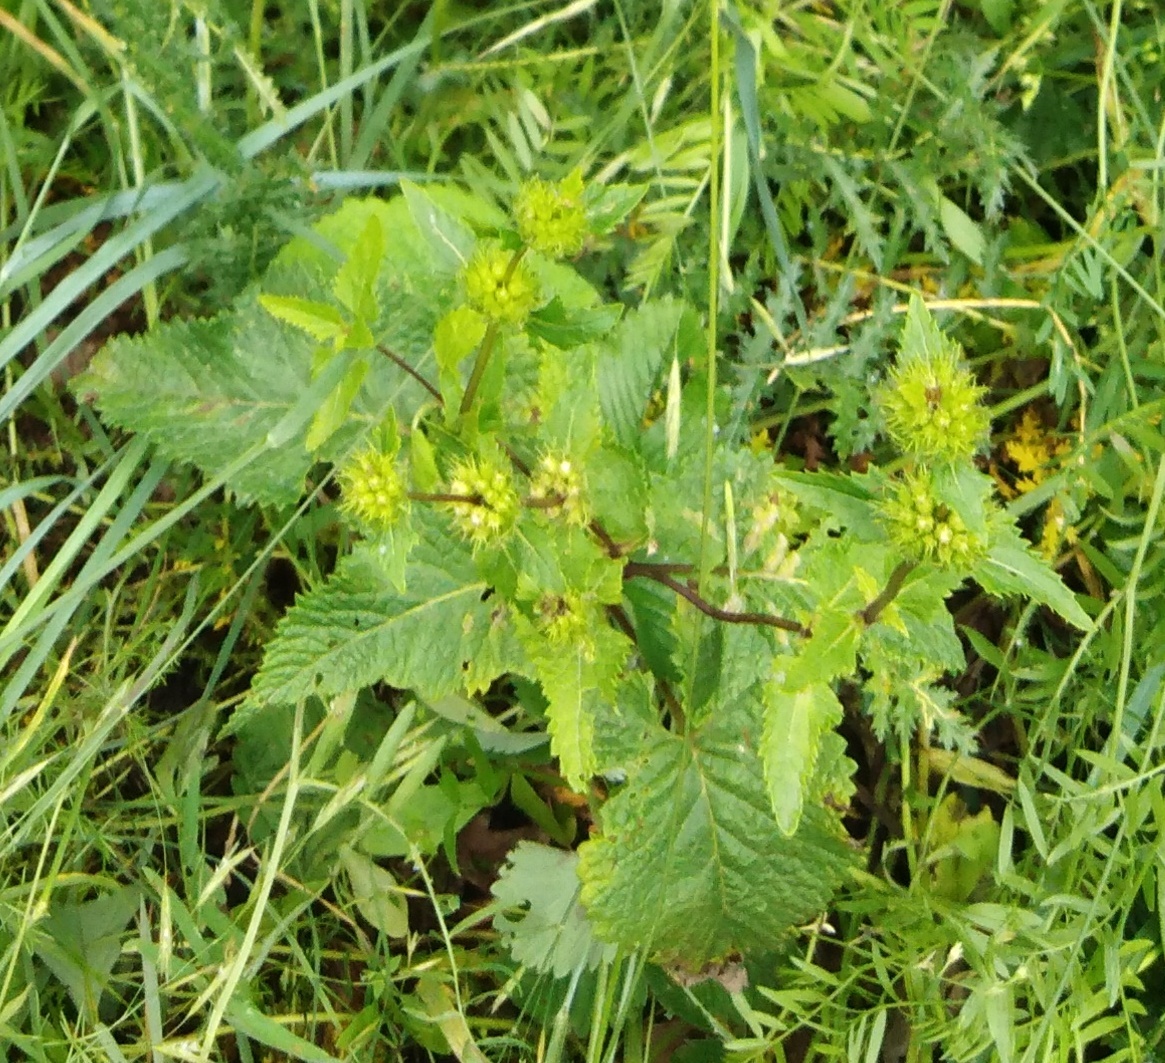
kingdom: Plantae
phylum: Tracheophyta
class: Magnoliopsida
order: Lamiales
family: Lamiaceae
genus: Phlomoides
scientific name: Phlomoides tuberosa
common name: Tuberous jerusalem sage
